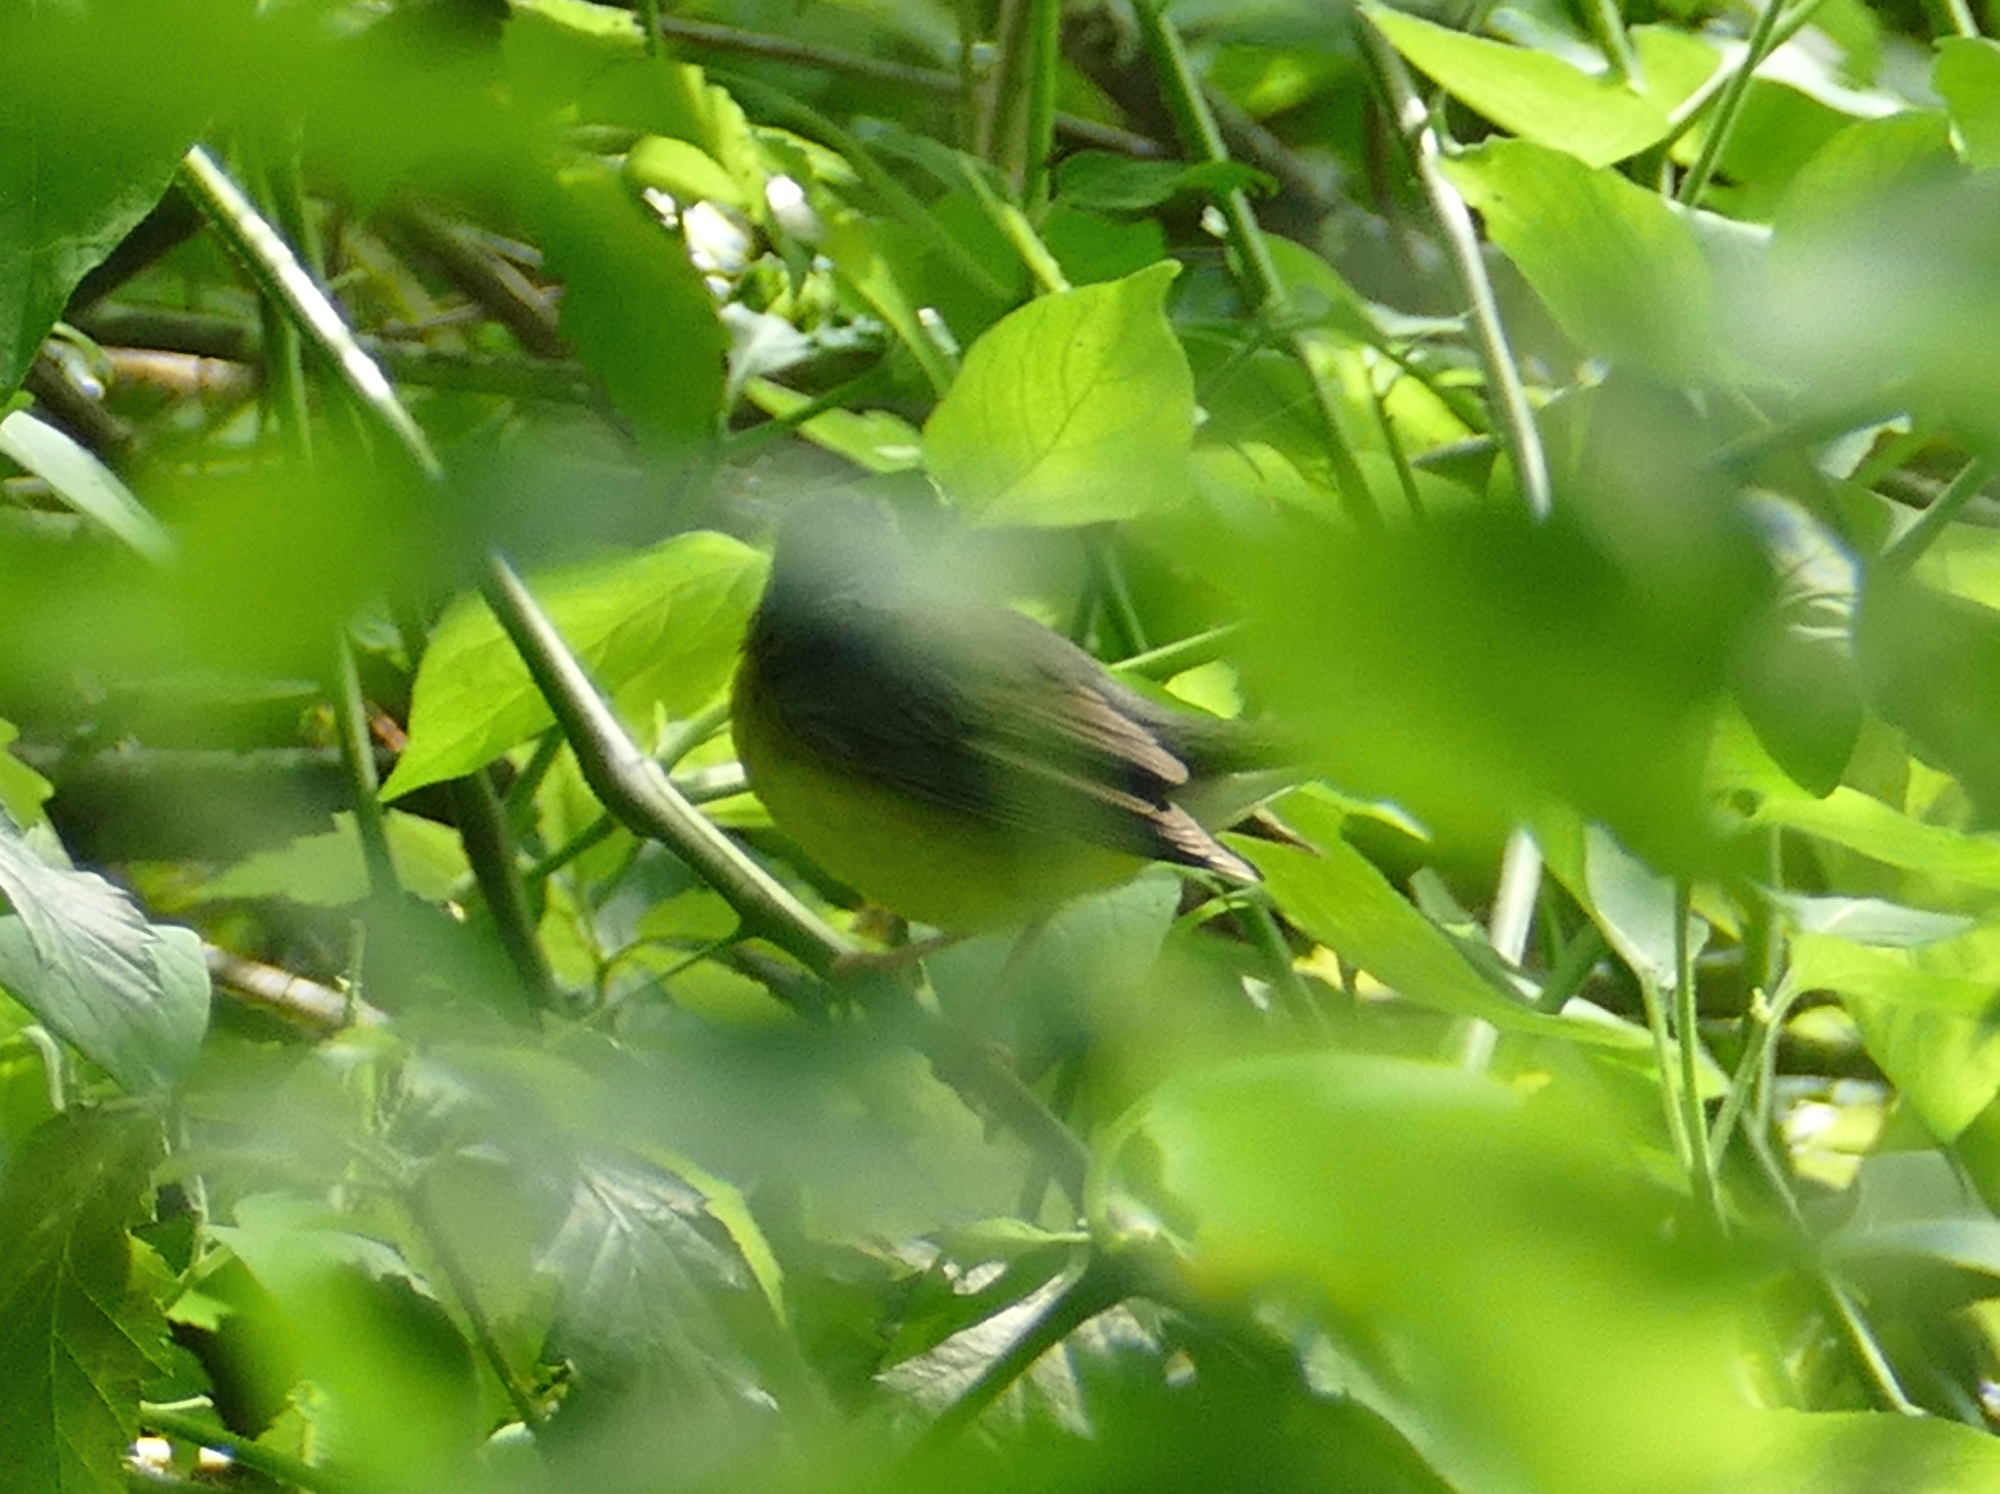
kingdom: Animalia
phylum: Chordata
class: Aves
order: Passeriformes
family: Parulidae
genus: Cardellina
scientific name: Cardellina canadensis
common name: Canada warbler
